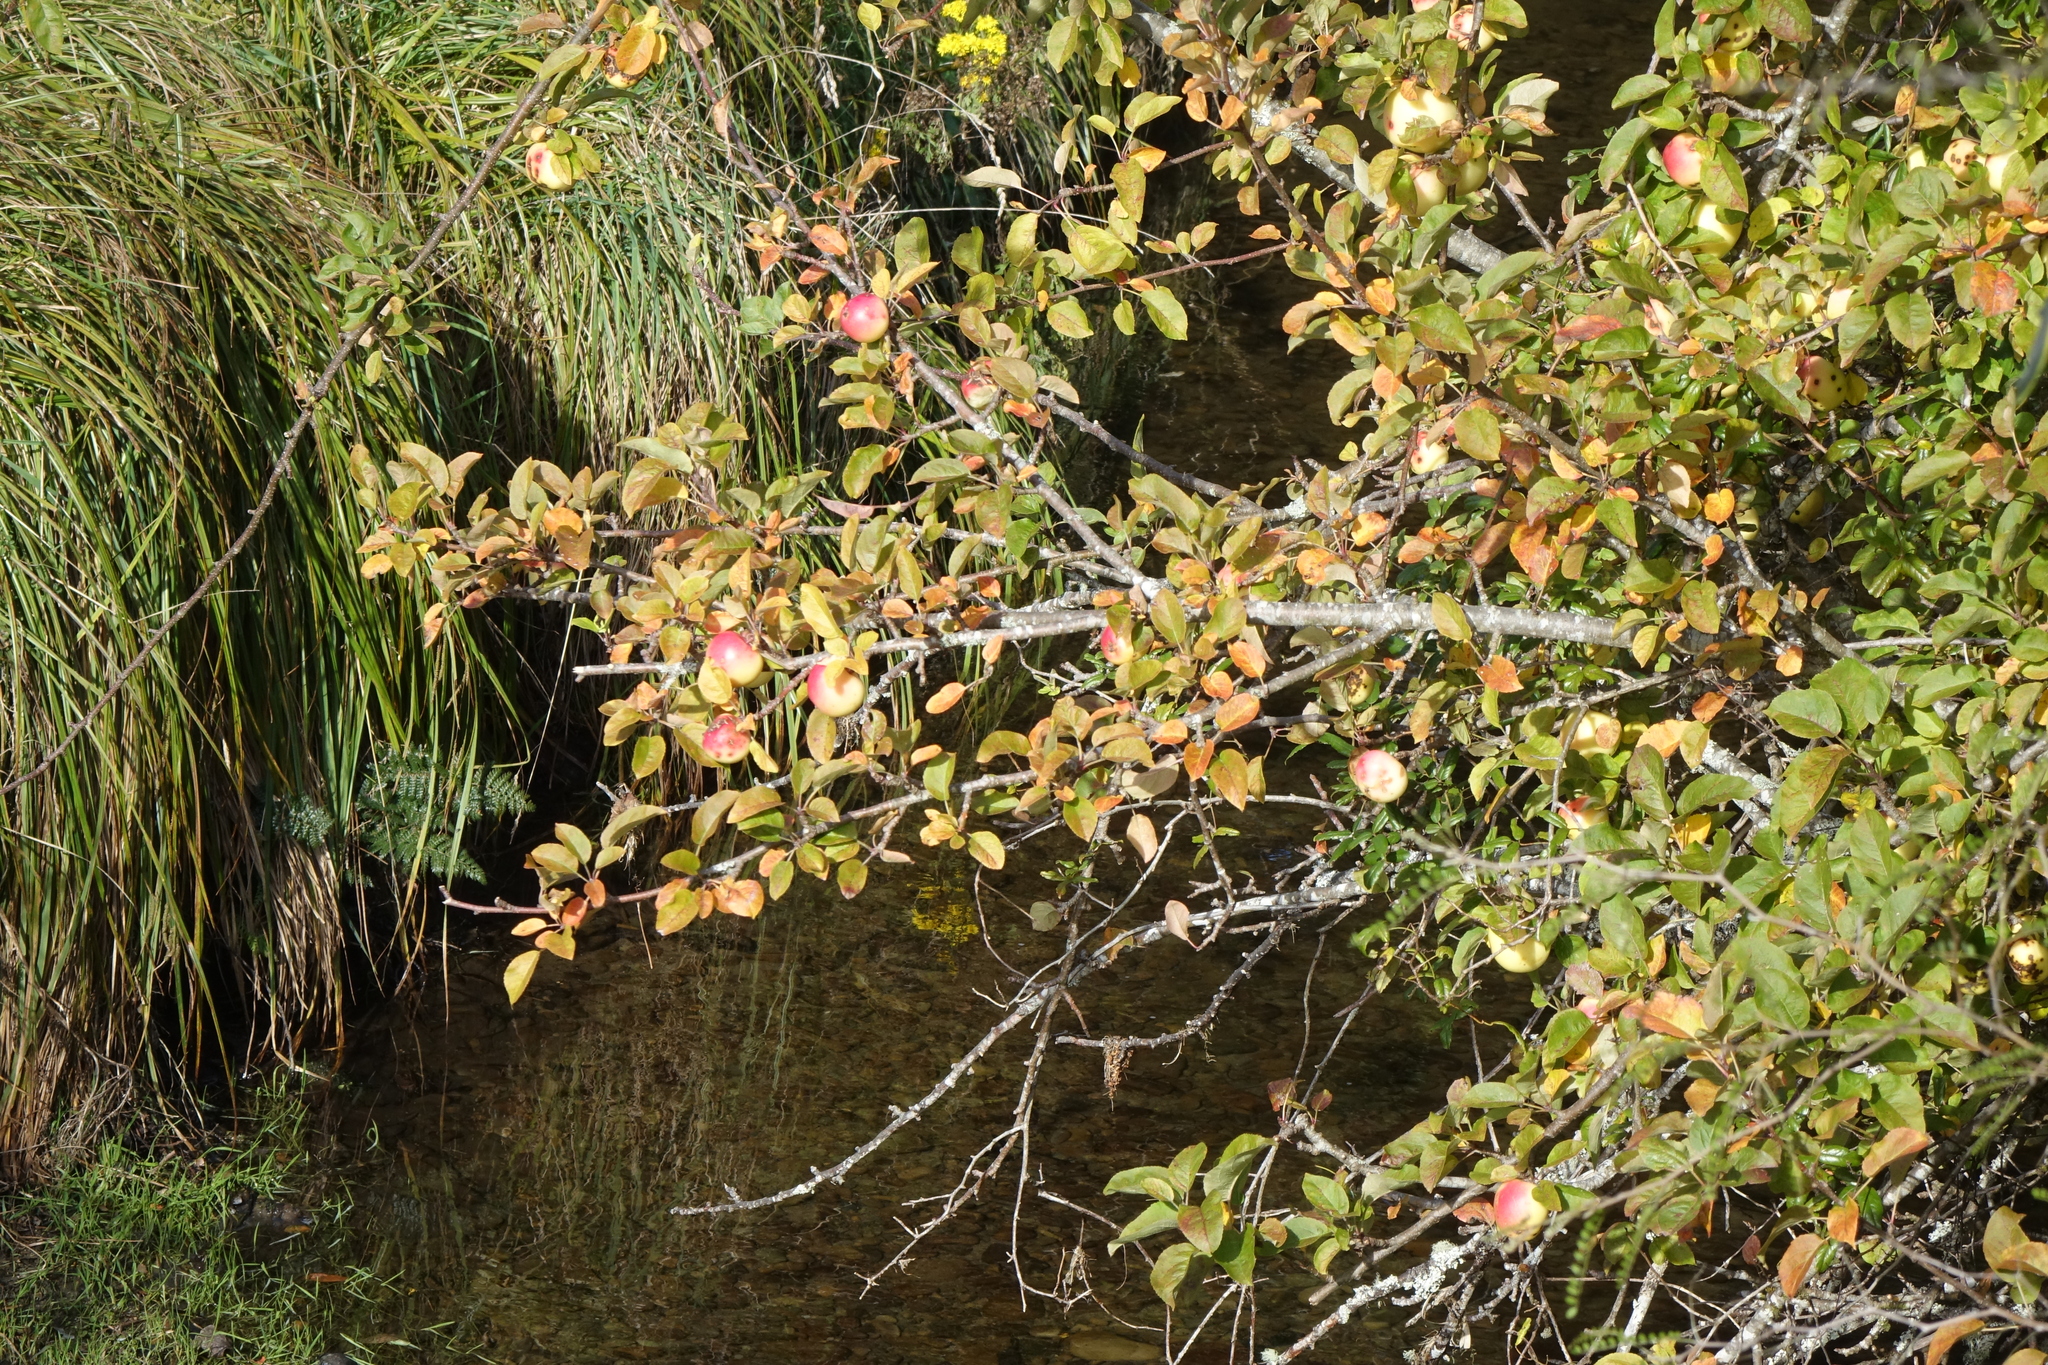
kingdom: Plantae
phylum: Tracheophyta
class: Magnoliopsida
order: Rosales
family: Rosaceae
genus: Malus
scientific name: Malus domestica
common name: Apple
